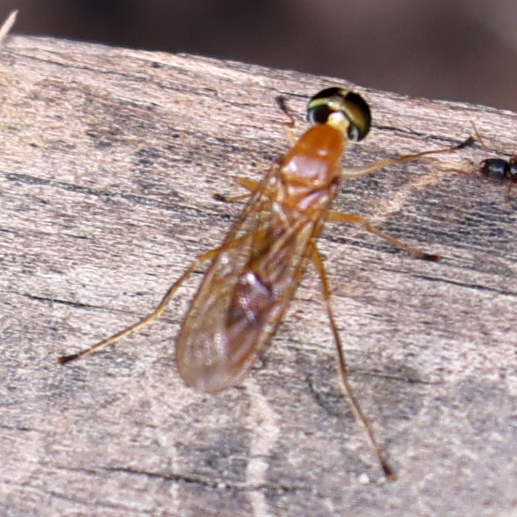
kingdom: Animalia
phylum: Arthropoda
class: Insecta
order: Diptera
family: Stratiomyidae
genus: Ptecticus
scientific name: Ptecticus trivittatus
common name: Compost fly
